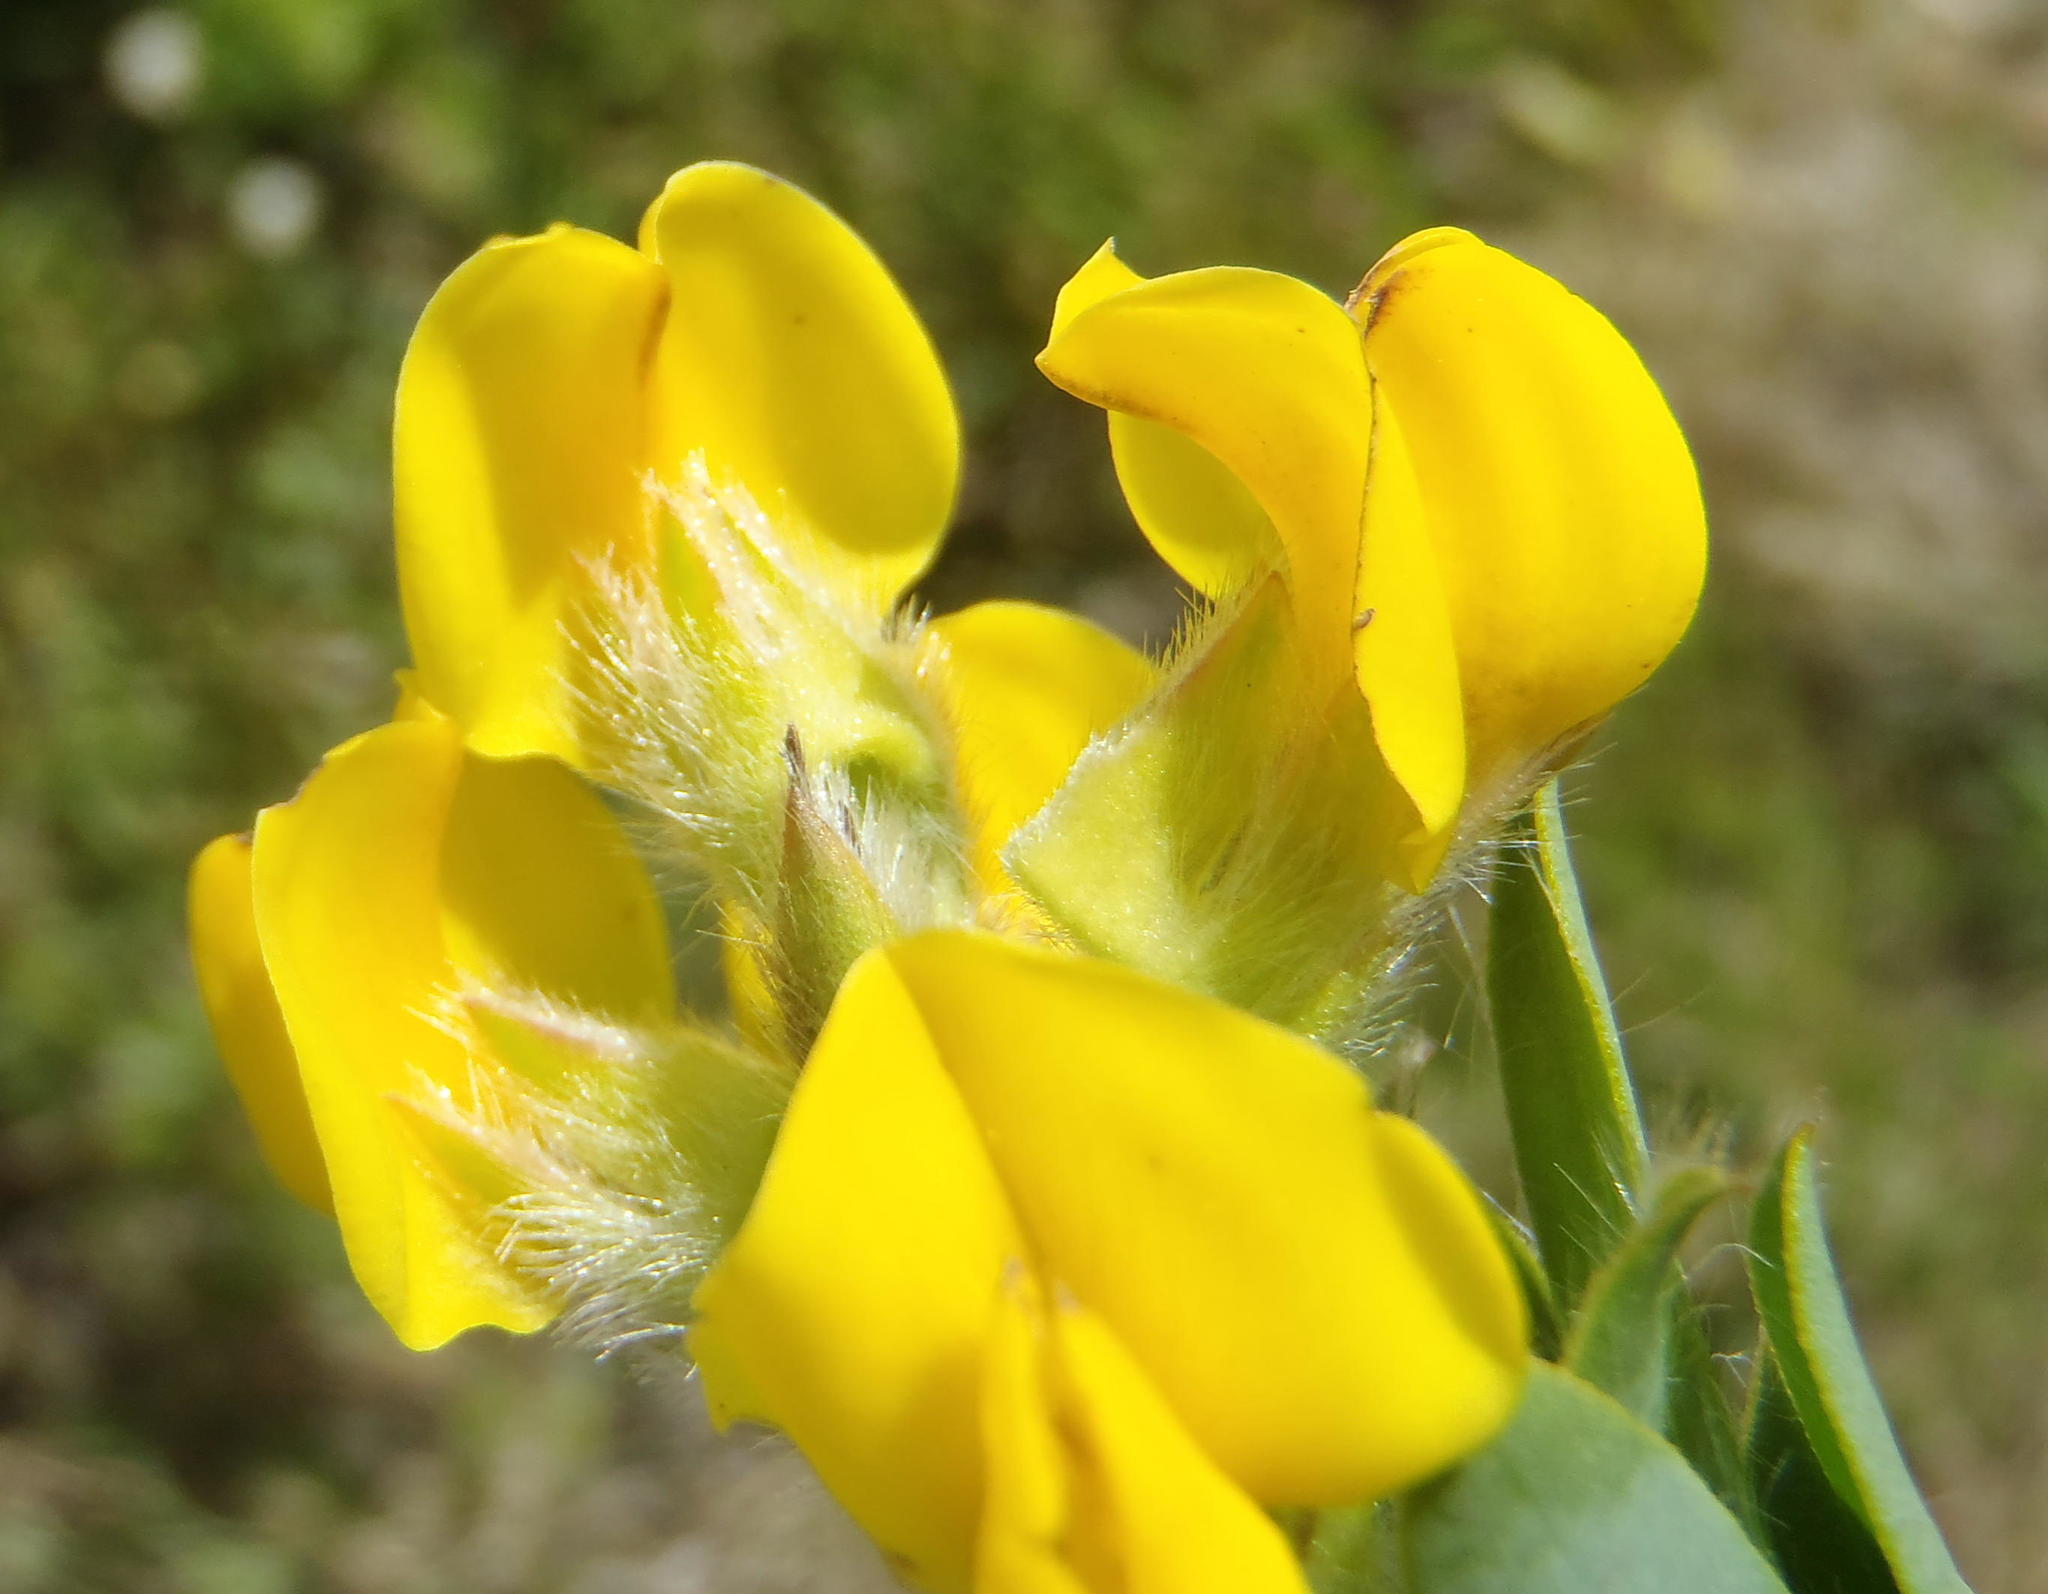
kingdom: Plantae
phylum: Tracheophyta
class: Magnoliopsida
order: Fabales
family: Fabaceae
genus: Liparia
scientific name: Liparia hirsuta
